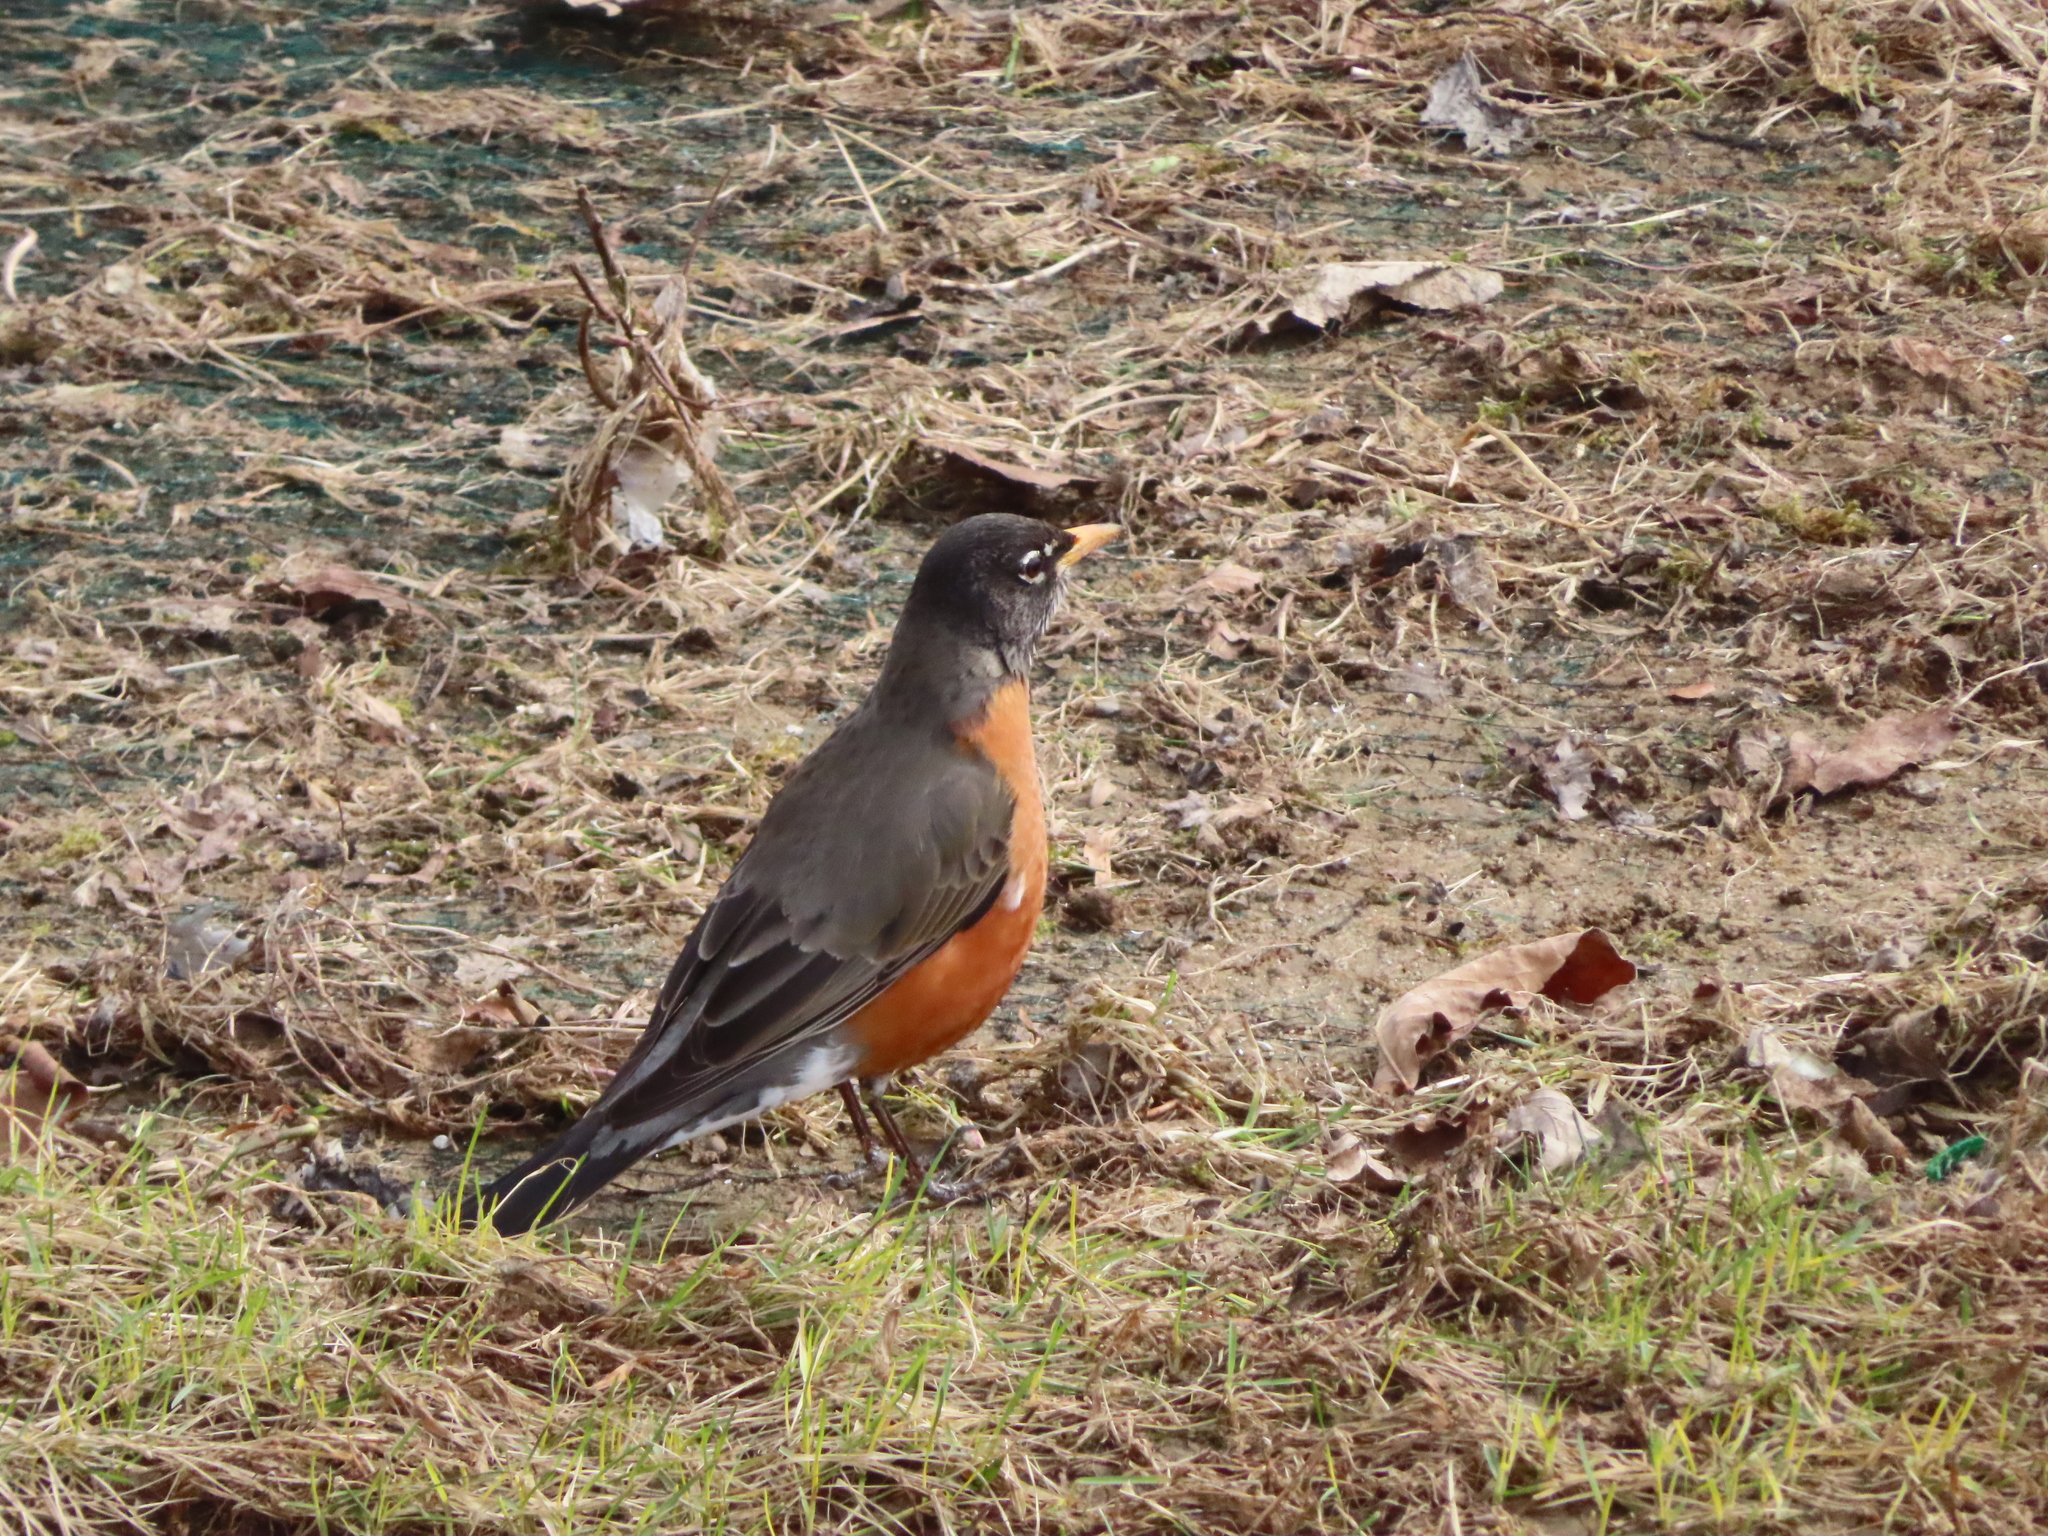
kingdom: Animalia
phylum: Chordata
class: Aves
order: Passeriformes
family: Turdidae
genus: Turdus
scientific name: Turdus migratorius
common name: American robin
